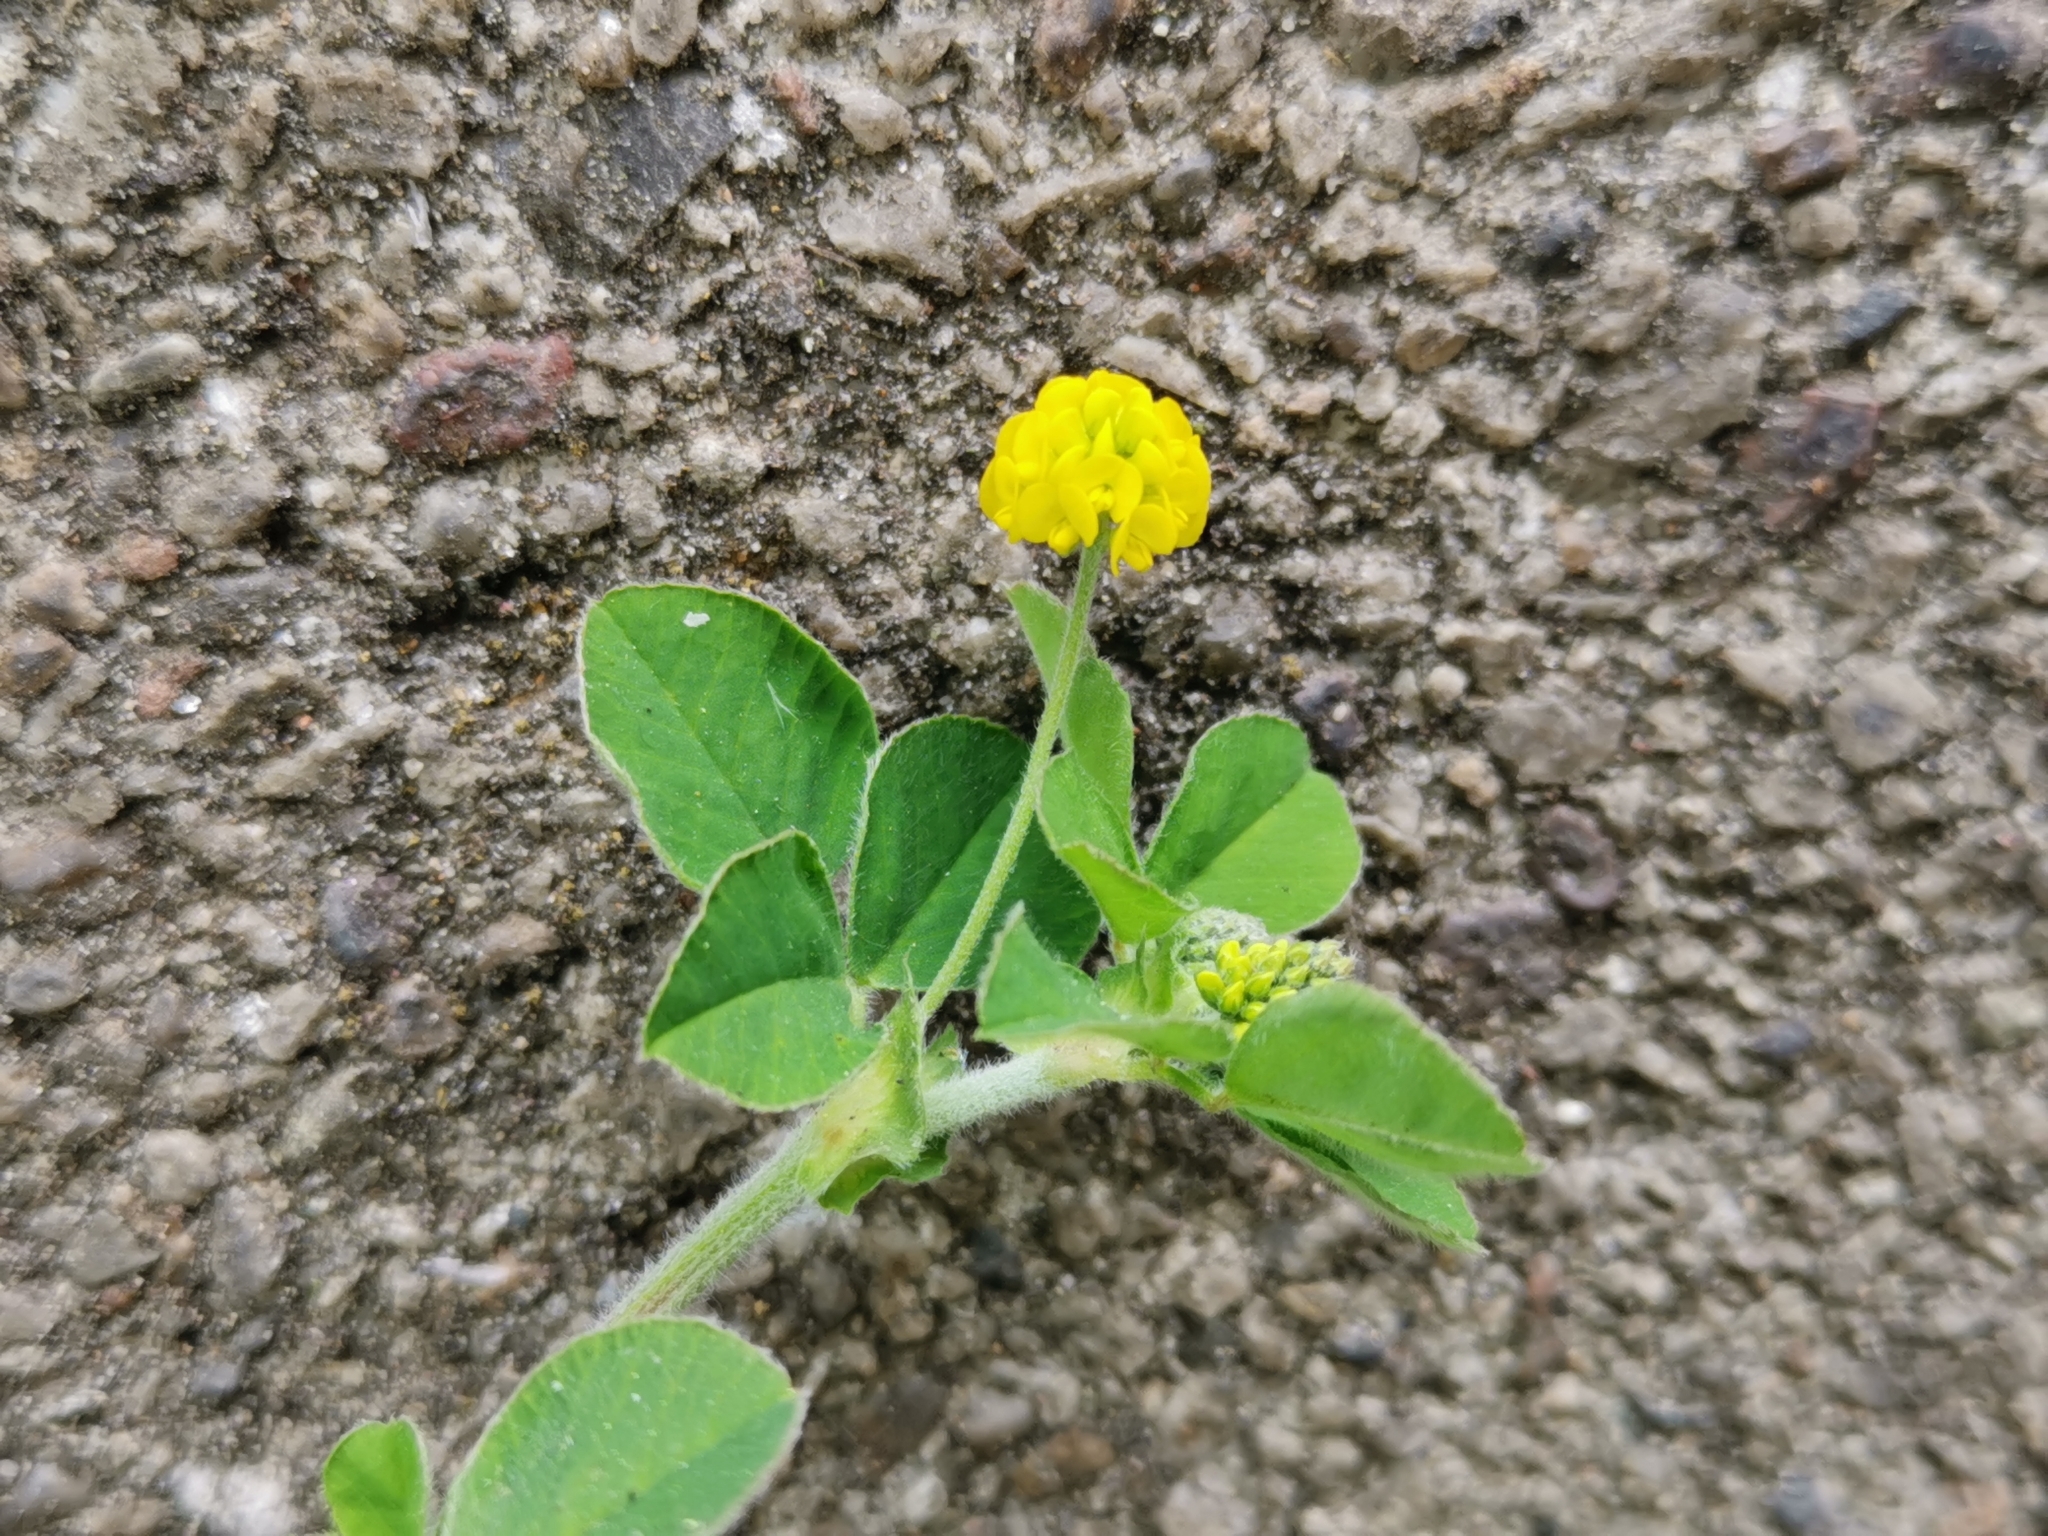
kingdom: Plantae
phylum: Tracheophyta
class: Magnoliopsida
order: Fabales
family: Fabaceae
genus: Medicago
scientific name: Medicago lupulina
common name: Black medick
